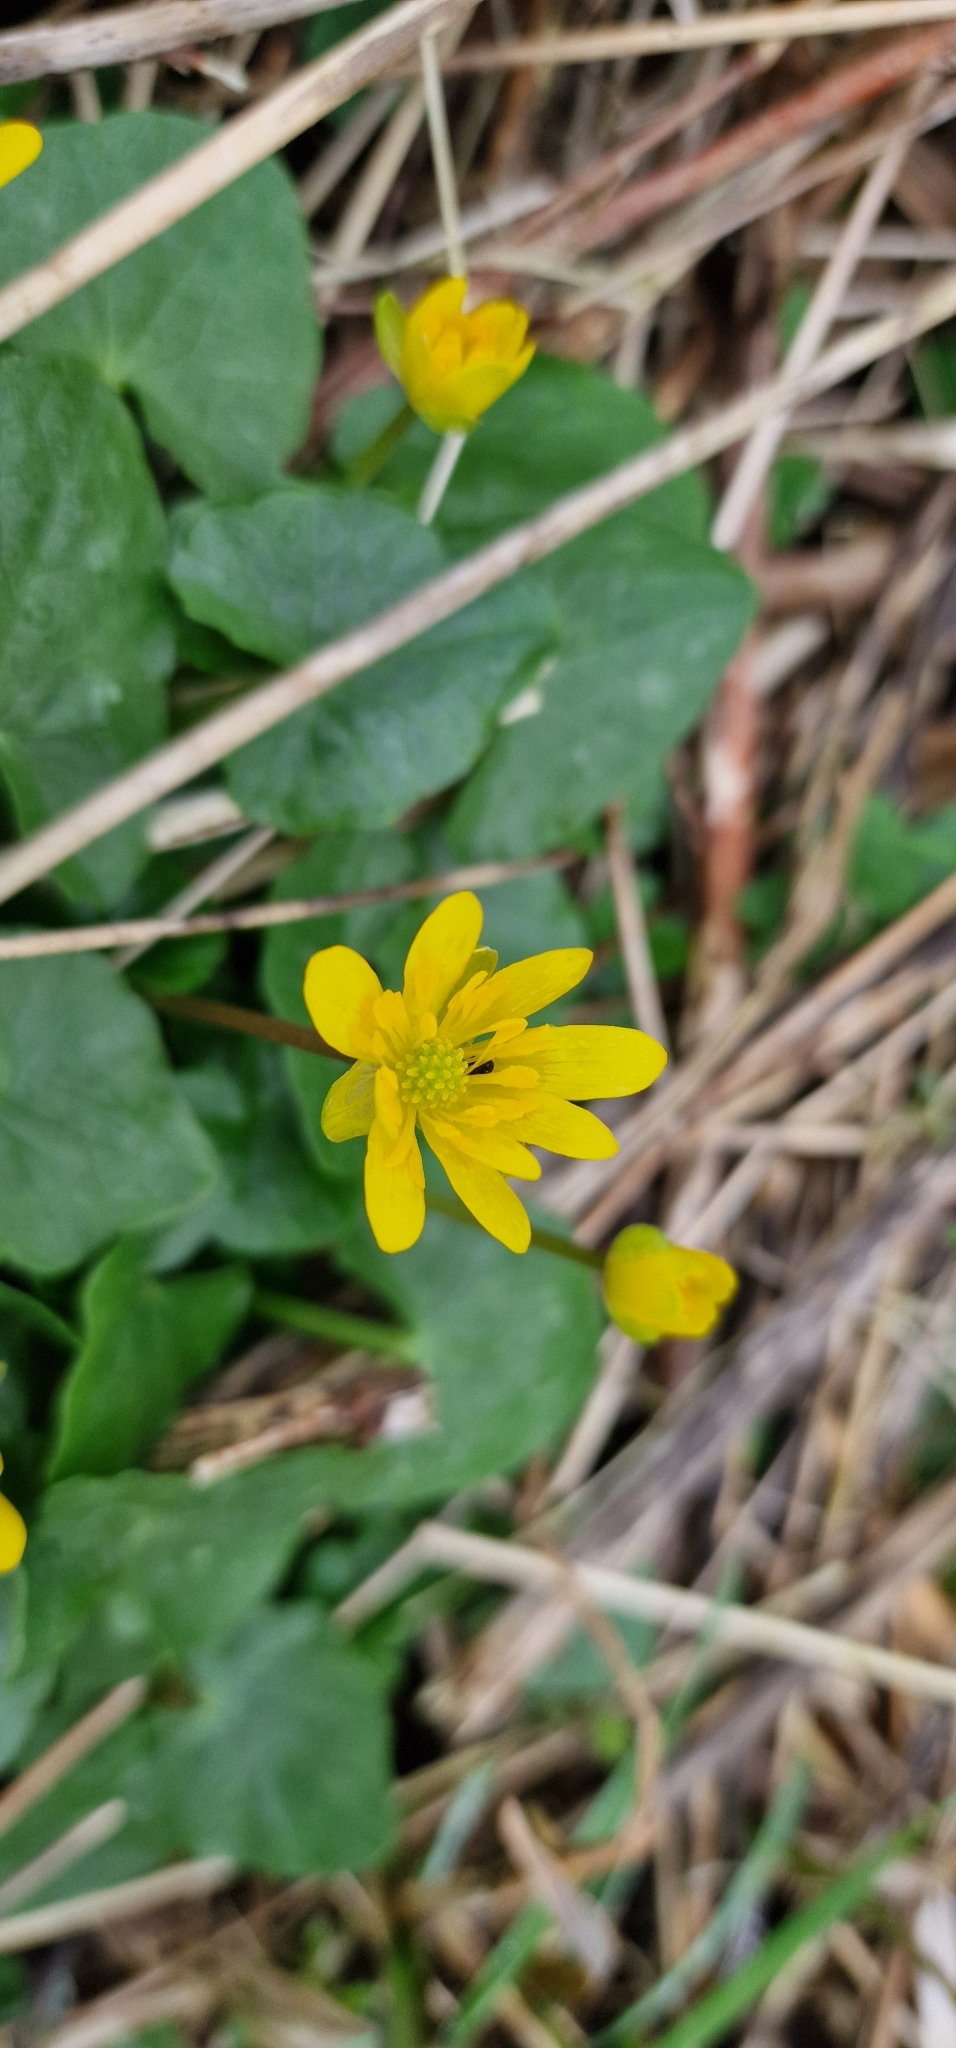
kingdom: Plantae
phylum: Tracheophyta
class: Magnoliopsida
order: Ranunculales
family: Ranunculaceae
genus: Ficaria
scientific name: Ficaria verna
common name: Lesser celandine
